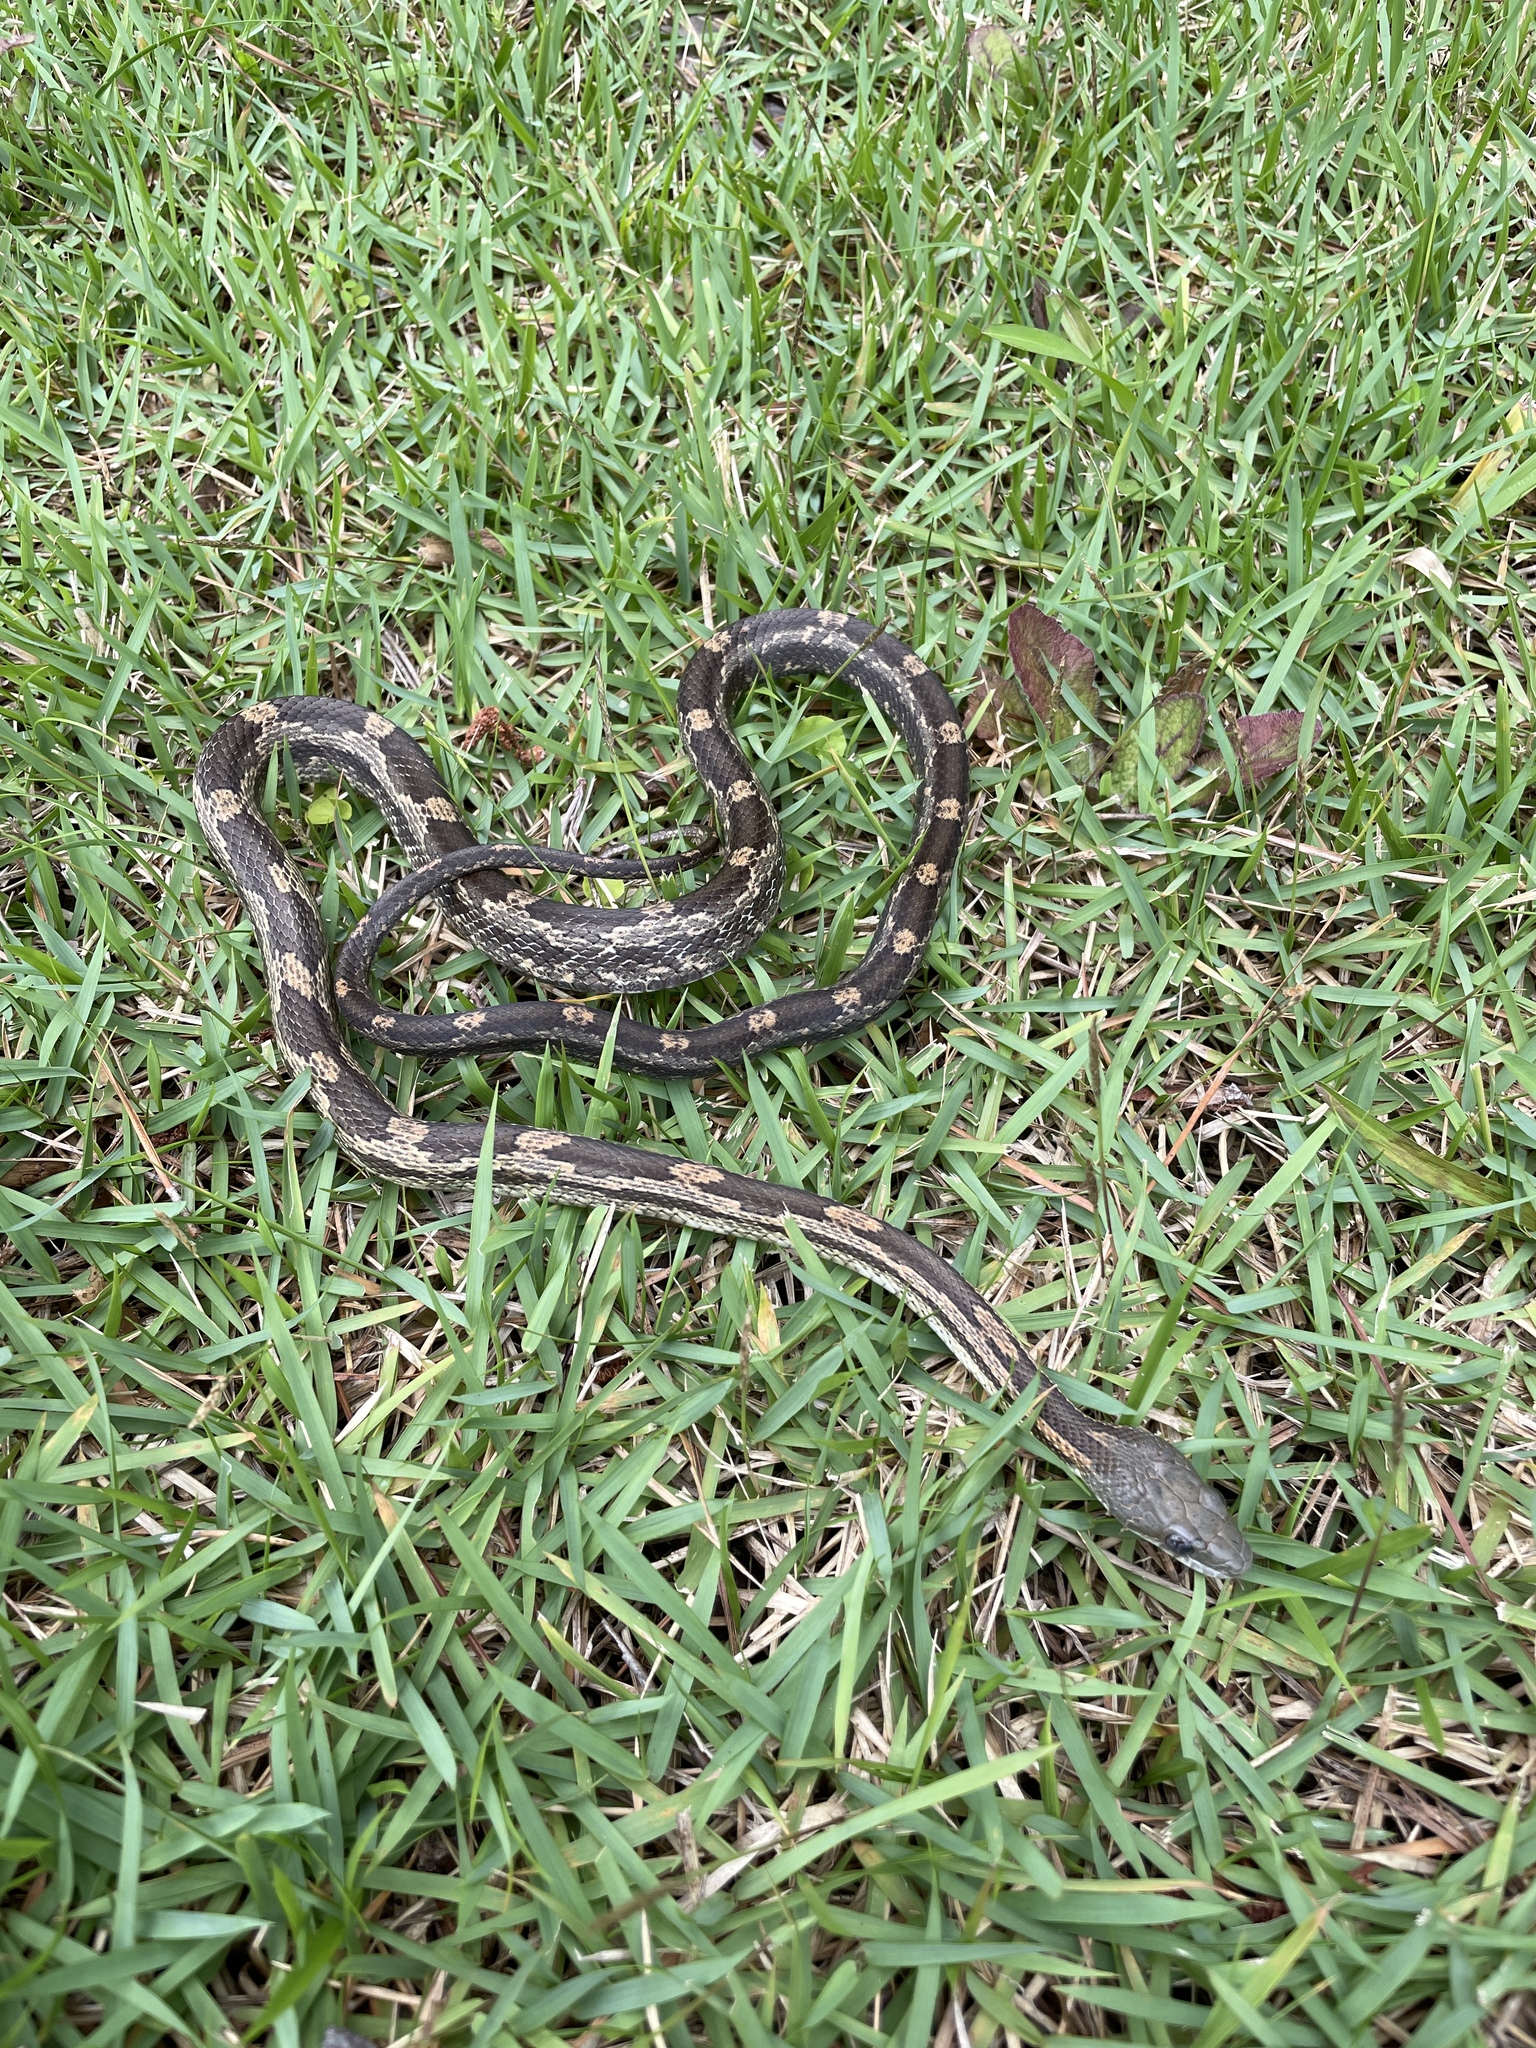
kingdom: Animalia
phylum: Chordata
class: Squamata
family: Colubridae
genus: Pantherophis
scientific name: Pantherophis spiloides
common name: Gray rat snake
